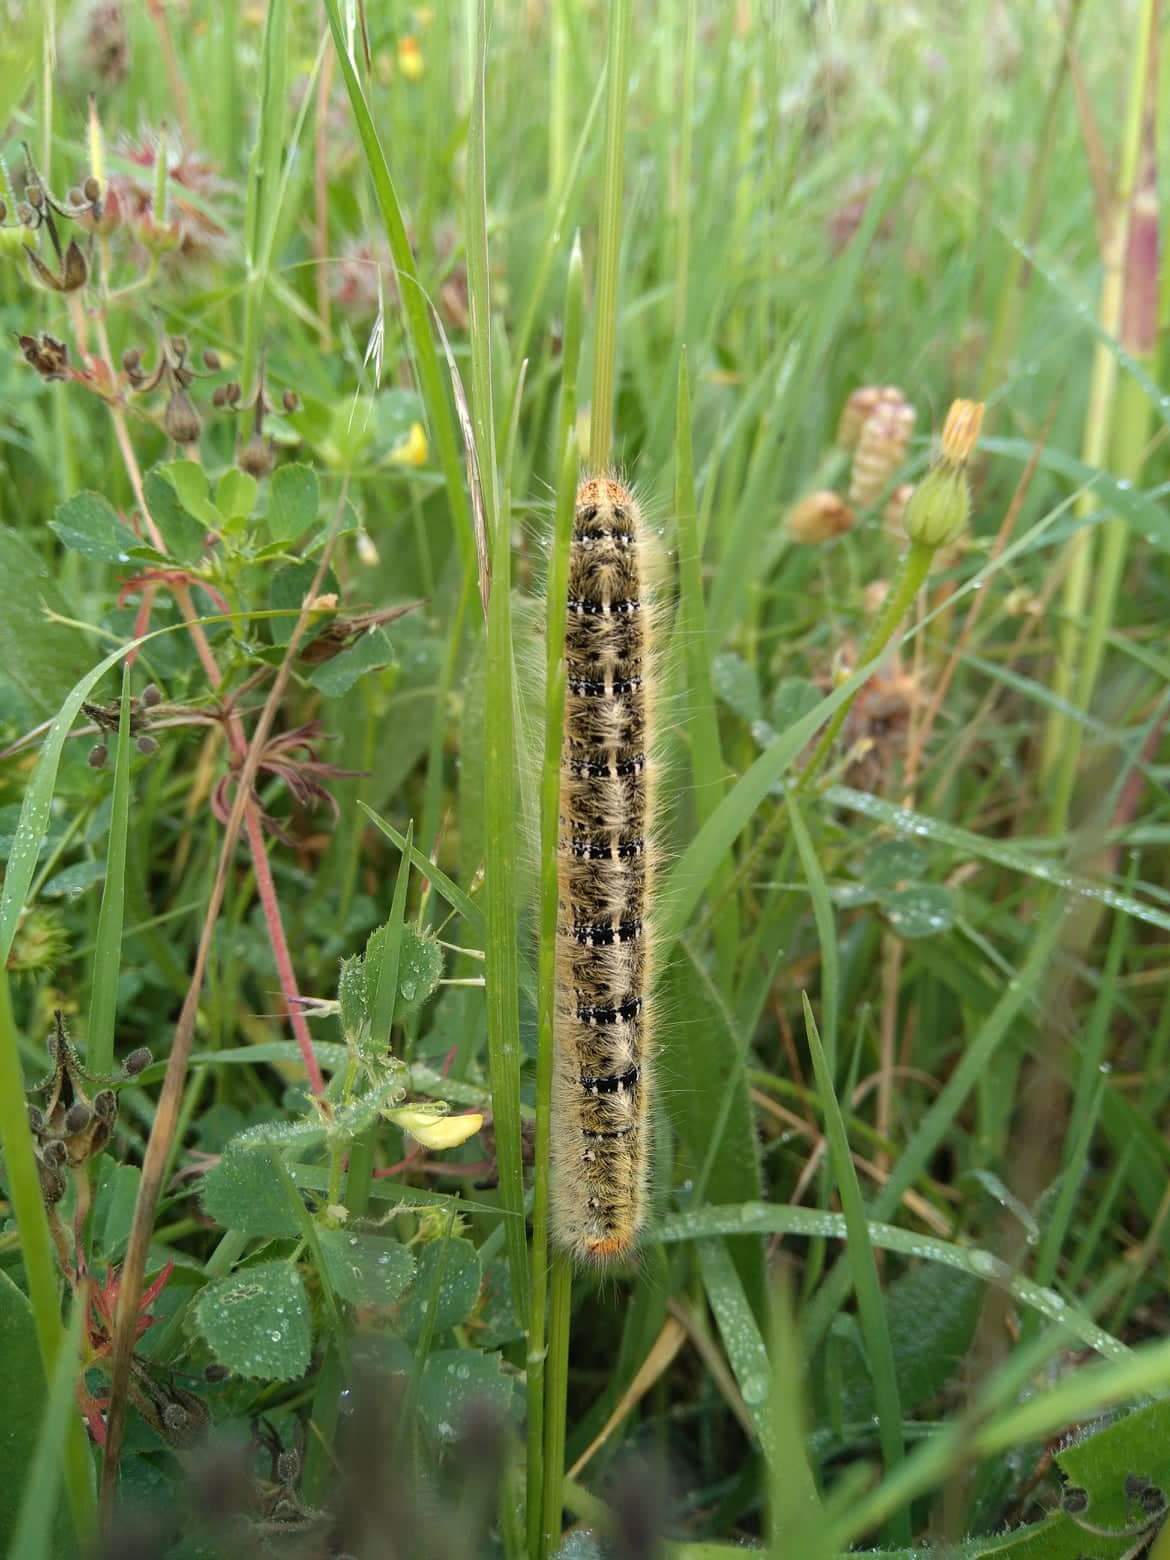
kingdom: Animalia
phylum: Arthropoda
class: Insecta
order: Lepidoptera
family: Lasiocampidae
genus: Lasiocampa
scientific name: Lasiocampa trifolii
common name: Grass eggar
